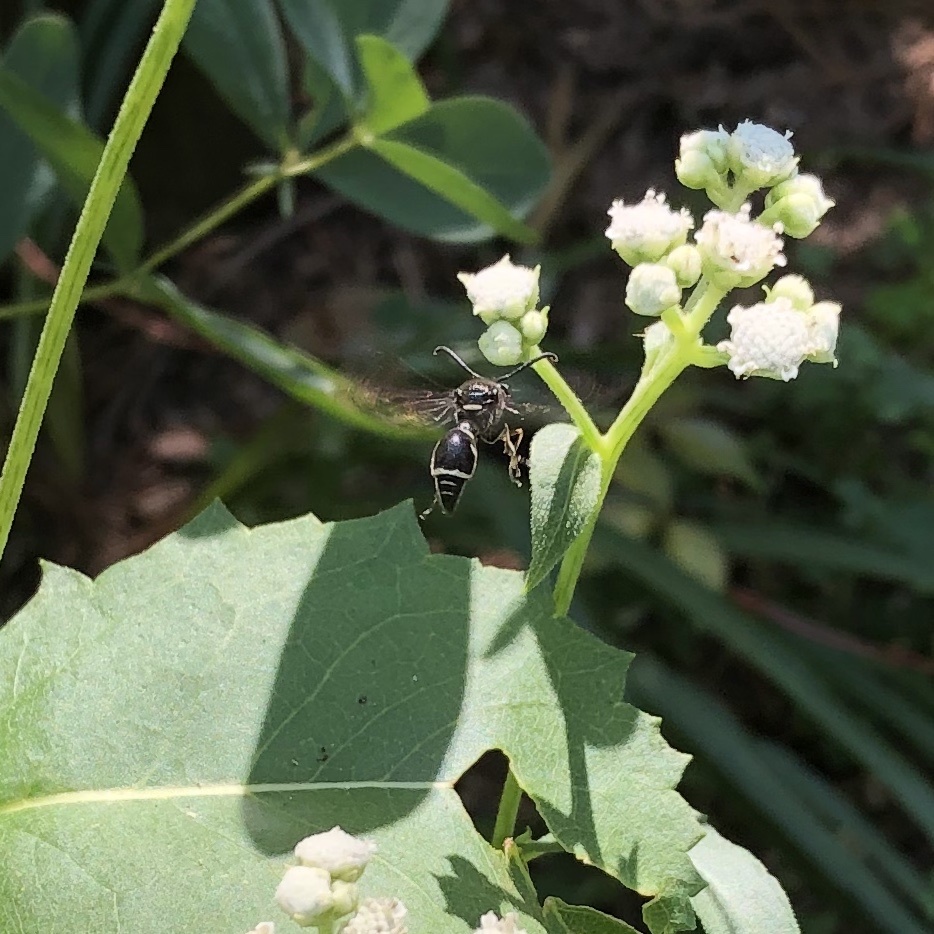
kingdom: Animalia
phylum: Arthropoda
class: Insecta
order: Hymenoptera
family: Vespidae
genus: Eumenes
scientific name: Eumenes fraternus
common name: Fraternal potter wasp
